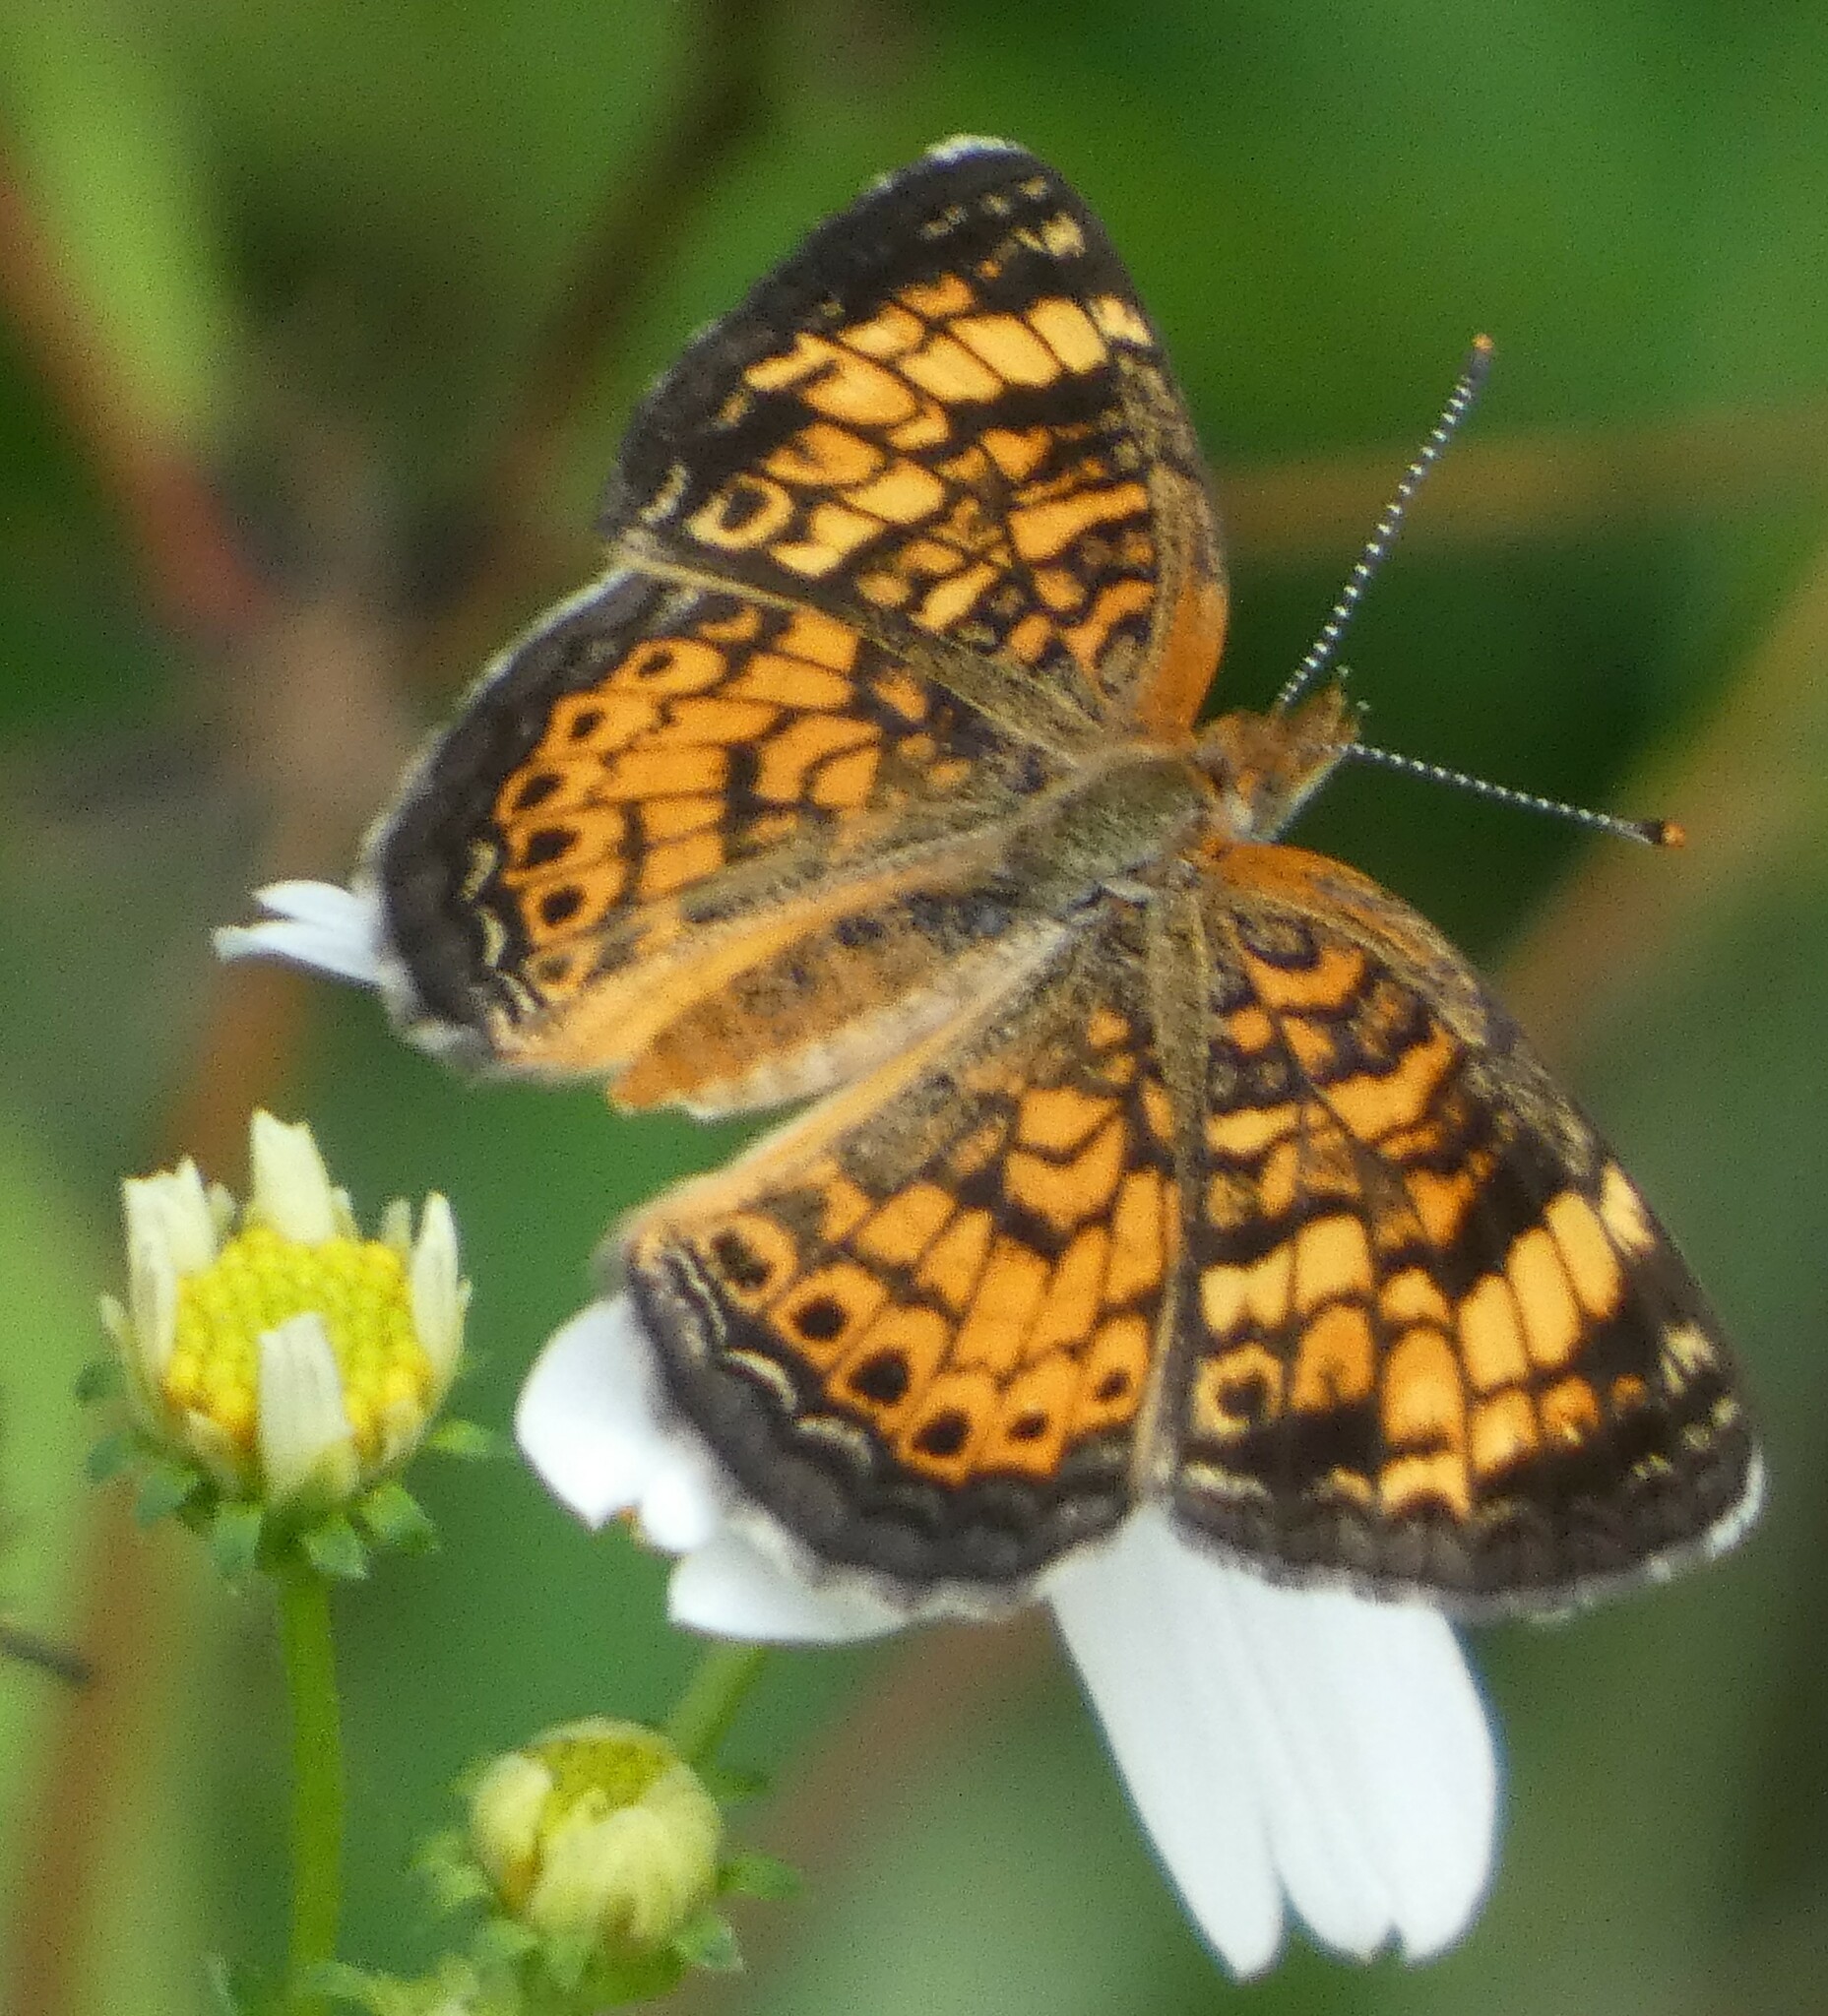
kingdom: Animalia
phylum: Arthropoda
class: Insecta
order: Lepidoptera
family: Nymphalidae
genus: Phyciodes
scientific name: Phyciodes tharos
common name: Pearl crescent
